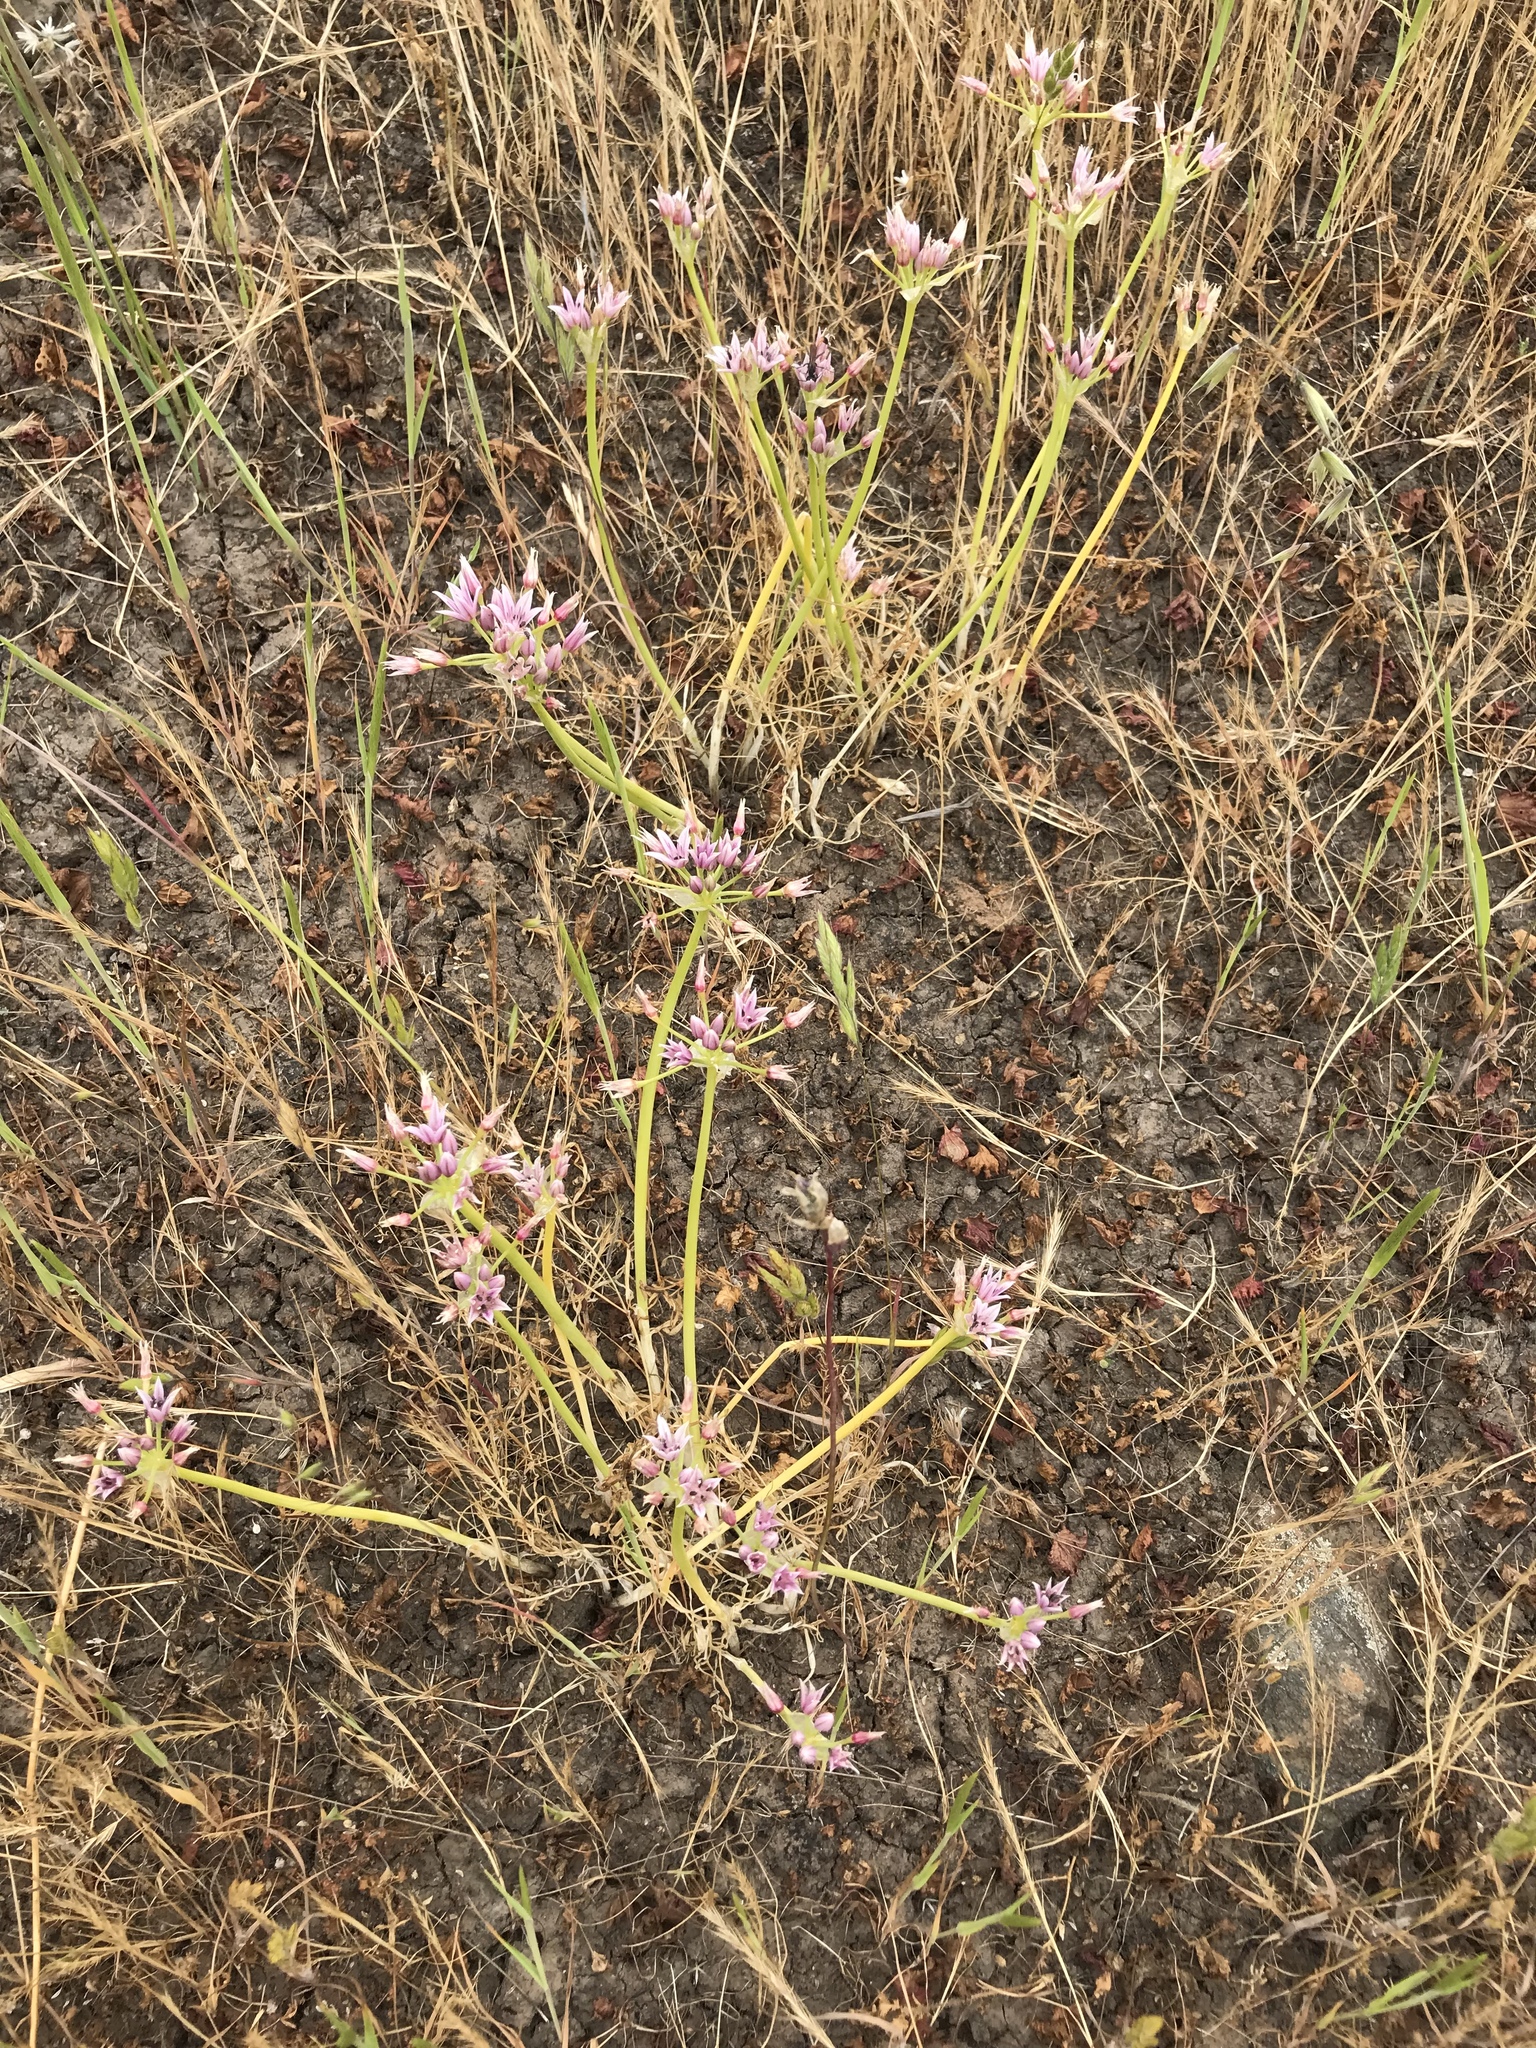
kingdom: Plantae
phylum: Tracheophyta
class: Liliopsida
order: Asparagales
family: Amaryllidaceae
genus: Allium
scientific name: Allium praecox
